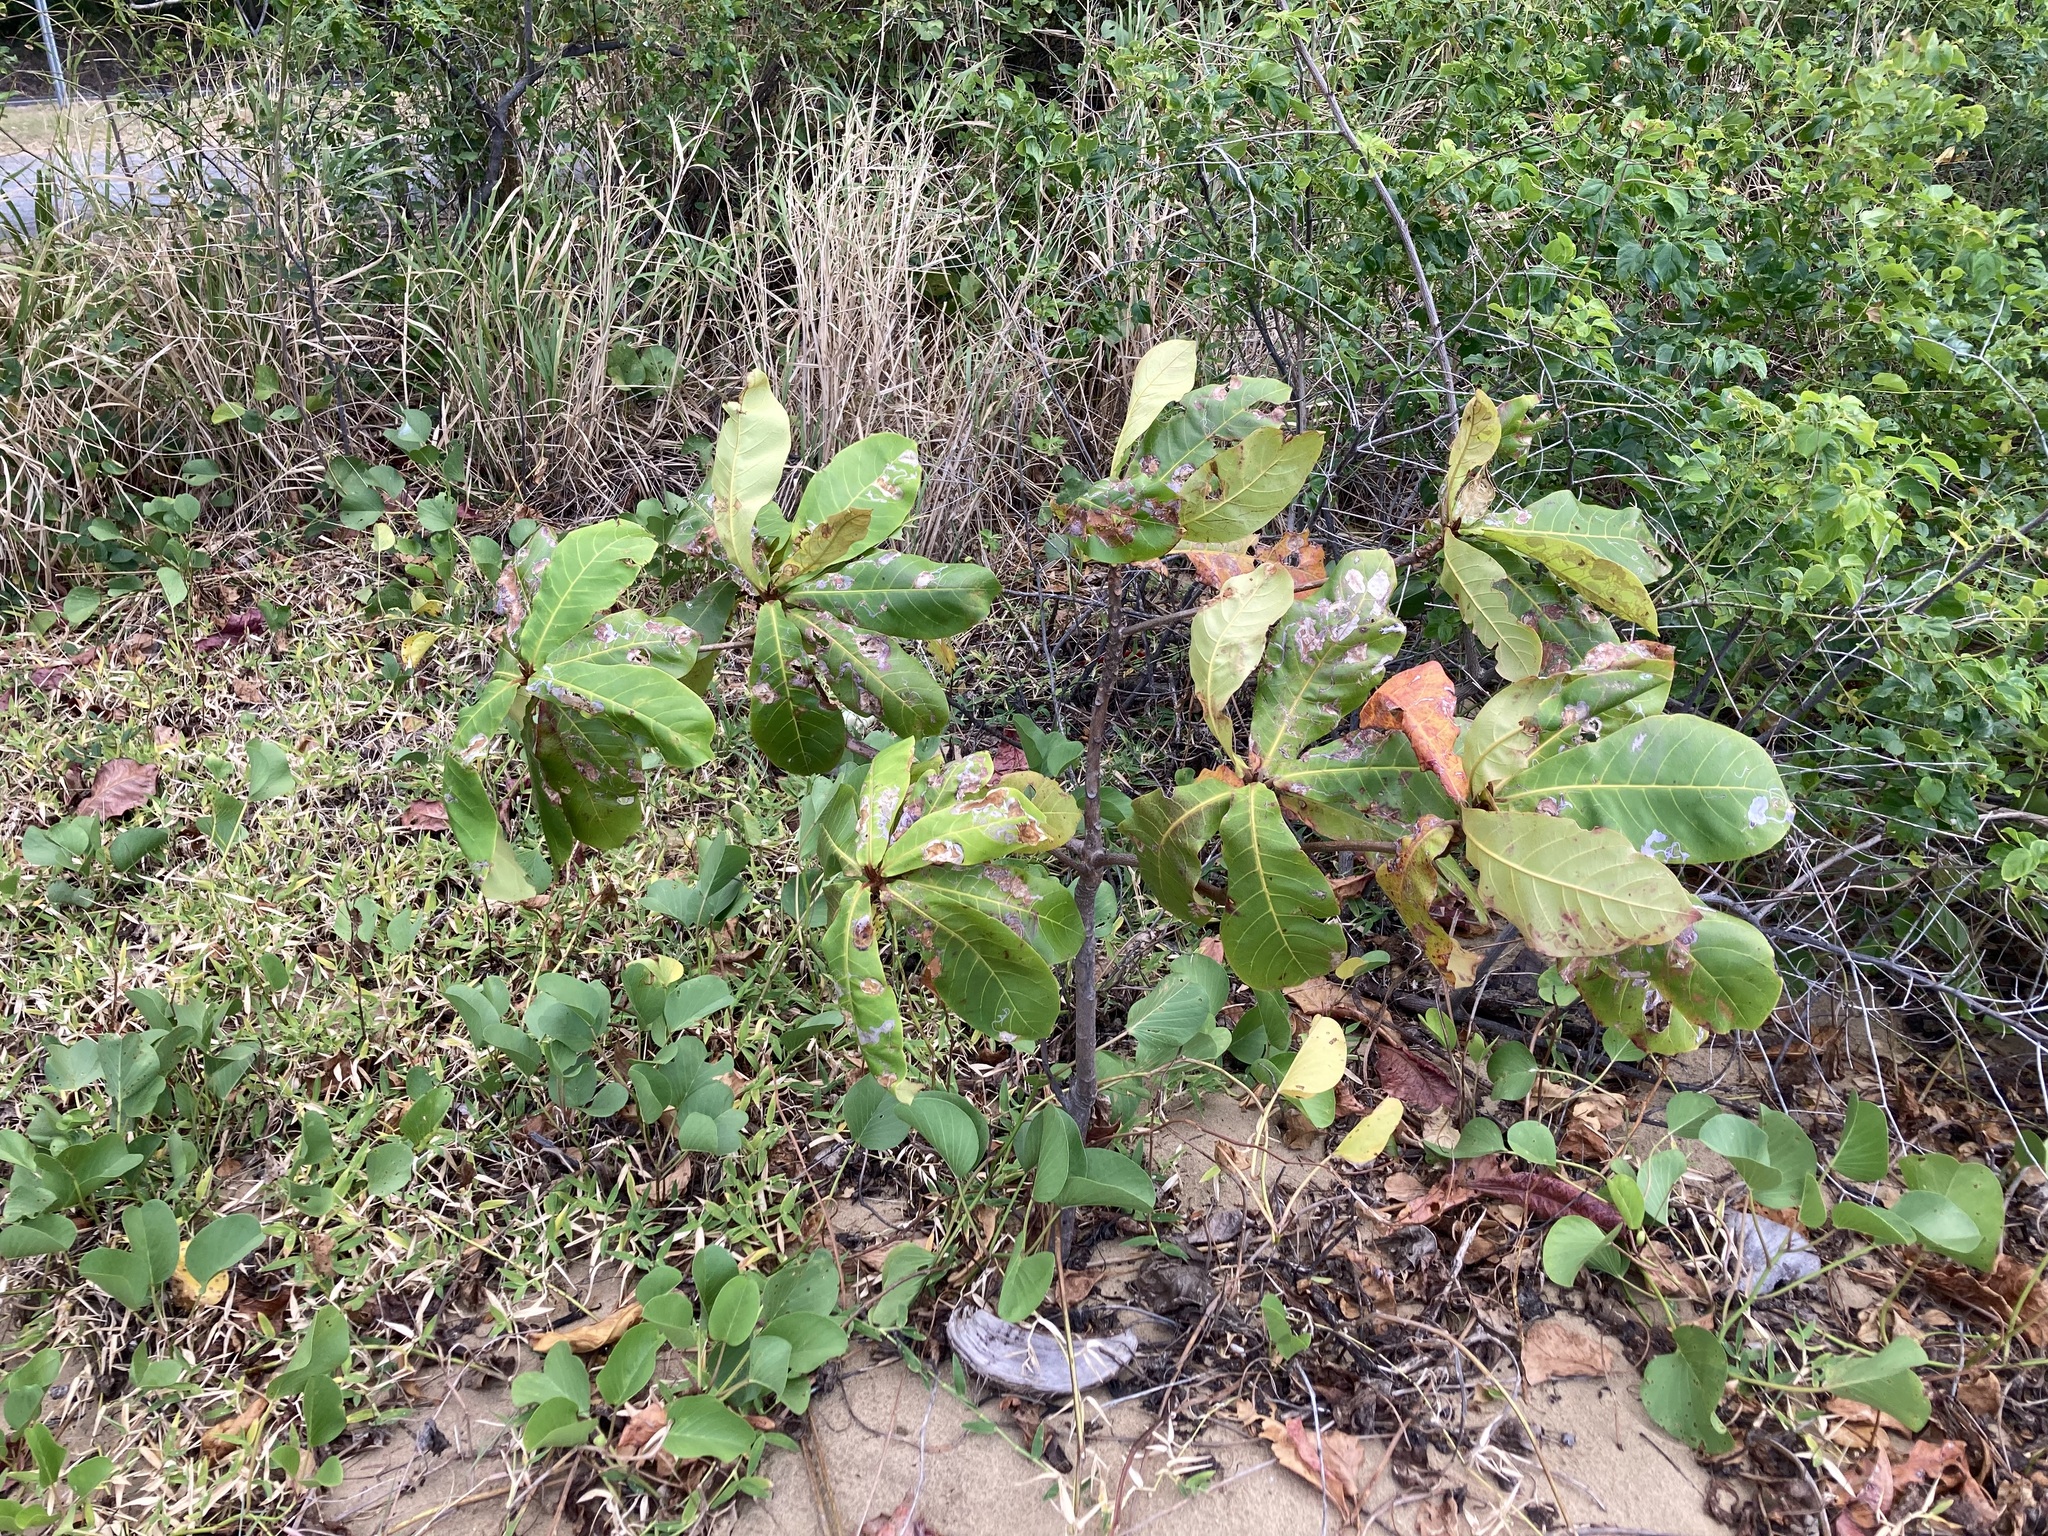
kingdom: Plantae
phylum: Tracheophyta
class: Magnoliopsida
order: Myrtales
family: Combretaceae
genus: Terminalia
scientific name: Terminalia catappa
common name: Tropical almond
